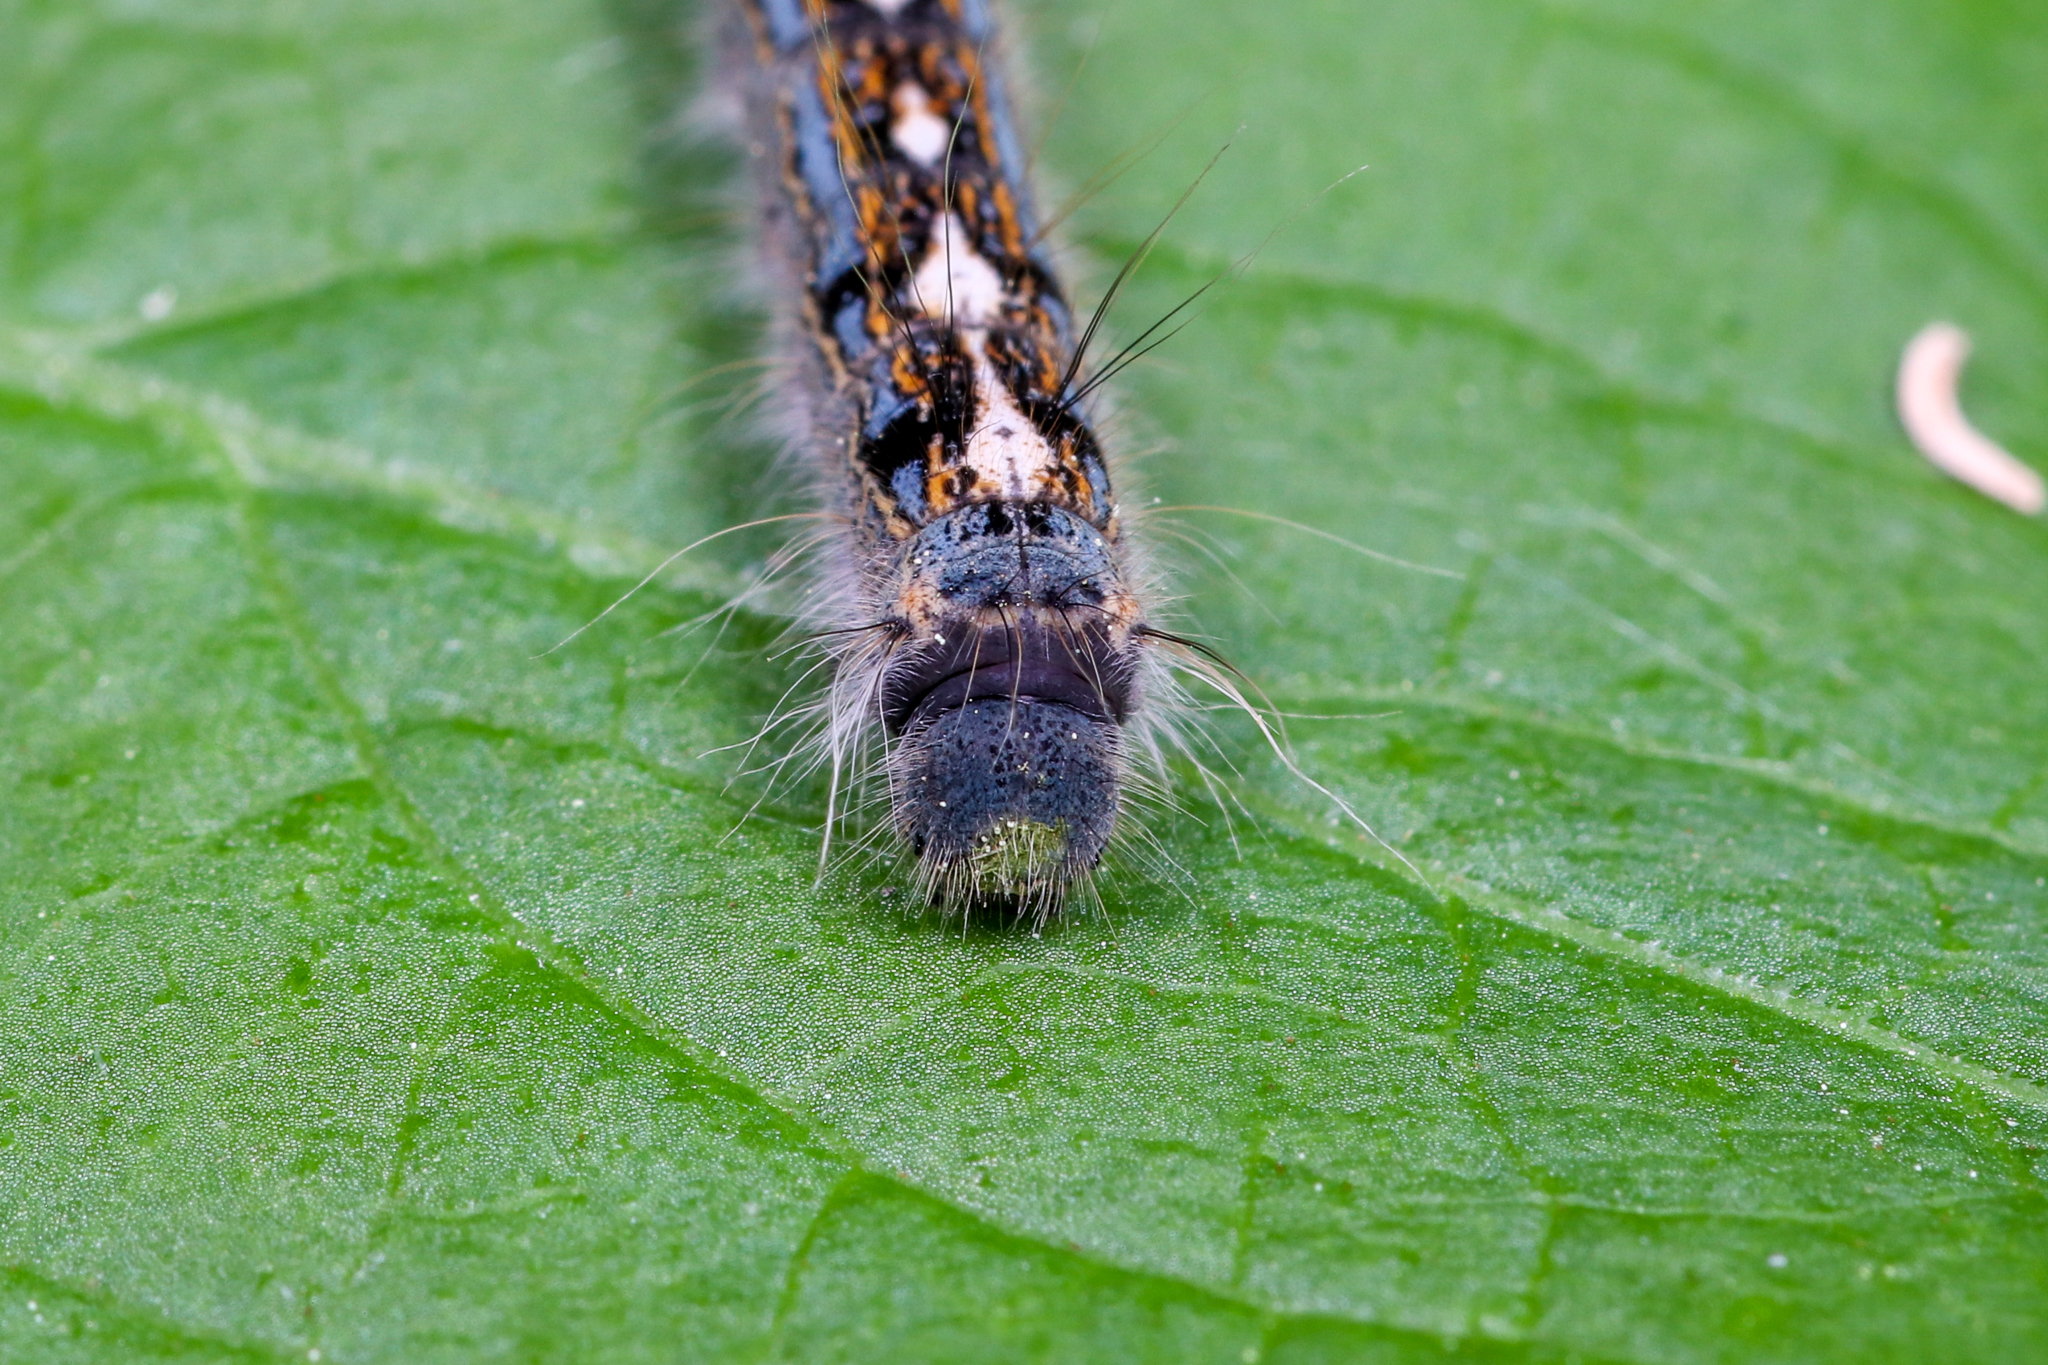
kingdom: Animalia
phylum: Arthropoda
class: Insecta
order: Lepidoptera
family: Lasiocampidae
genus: Malacosoma
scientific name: Malacosoma disstria
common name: Forest tent caterpillar
